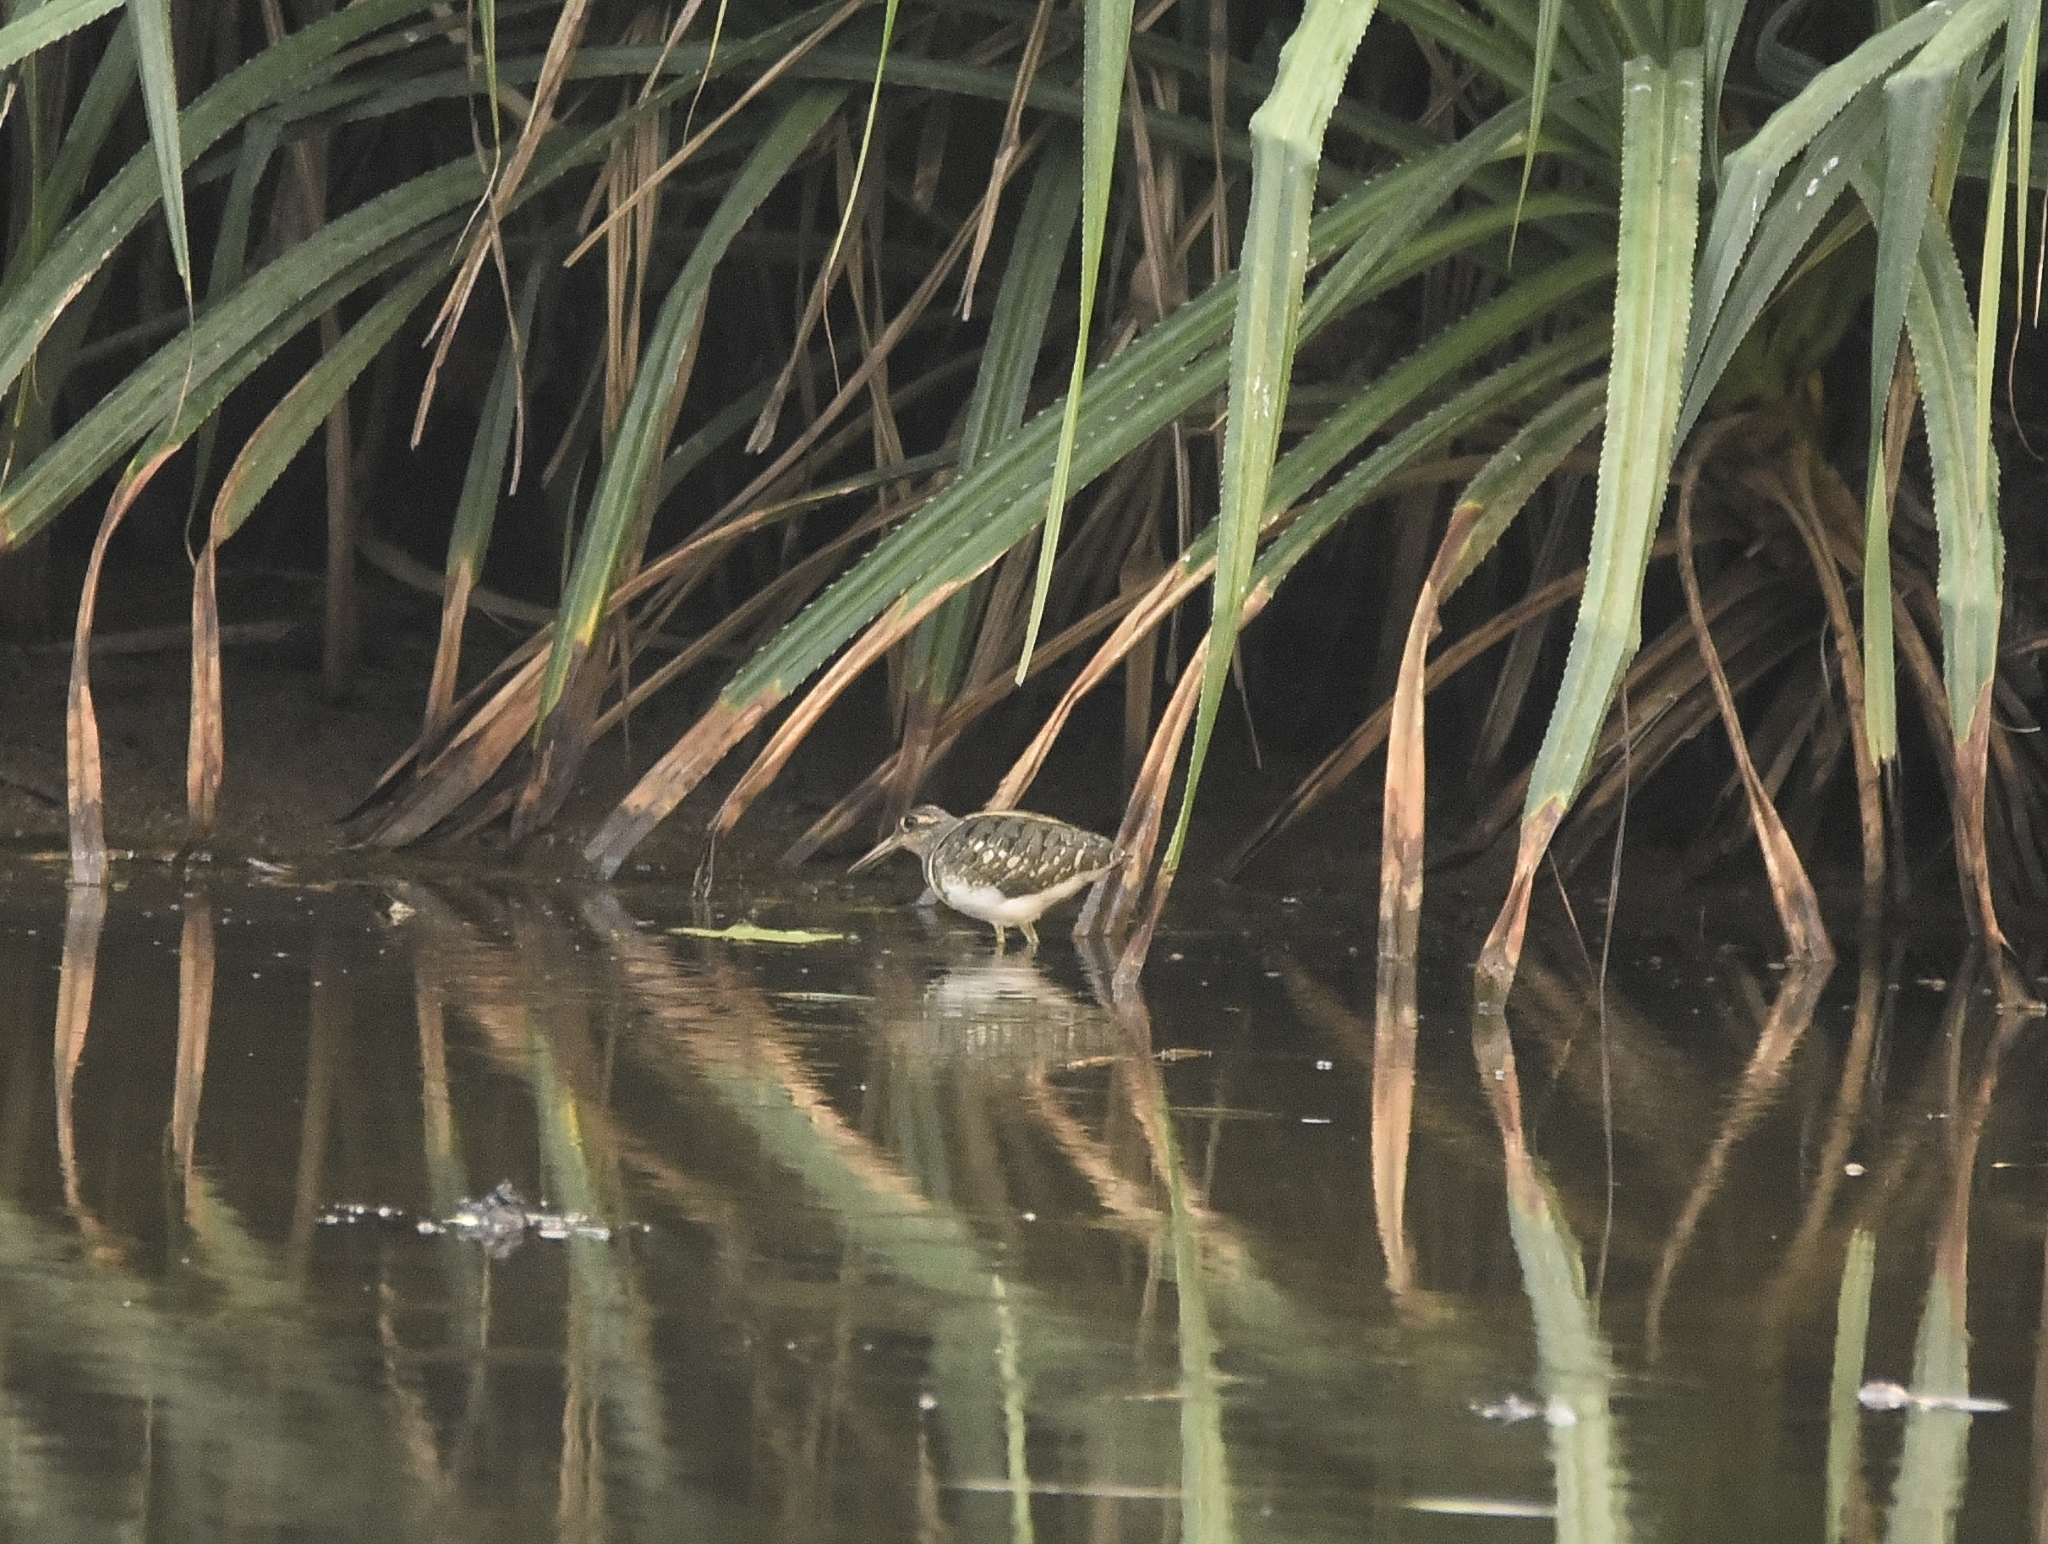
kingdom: Animalia
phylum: Chordata
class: Aves
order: Charadriiformes
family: Rostratulidae
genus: Rostratula
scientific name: Rostratula benghalensis
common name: Greater painted-snipe
